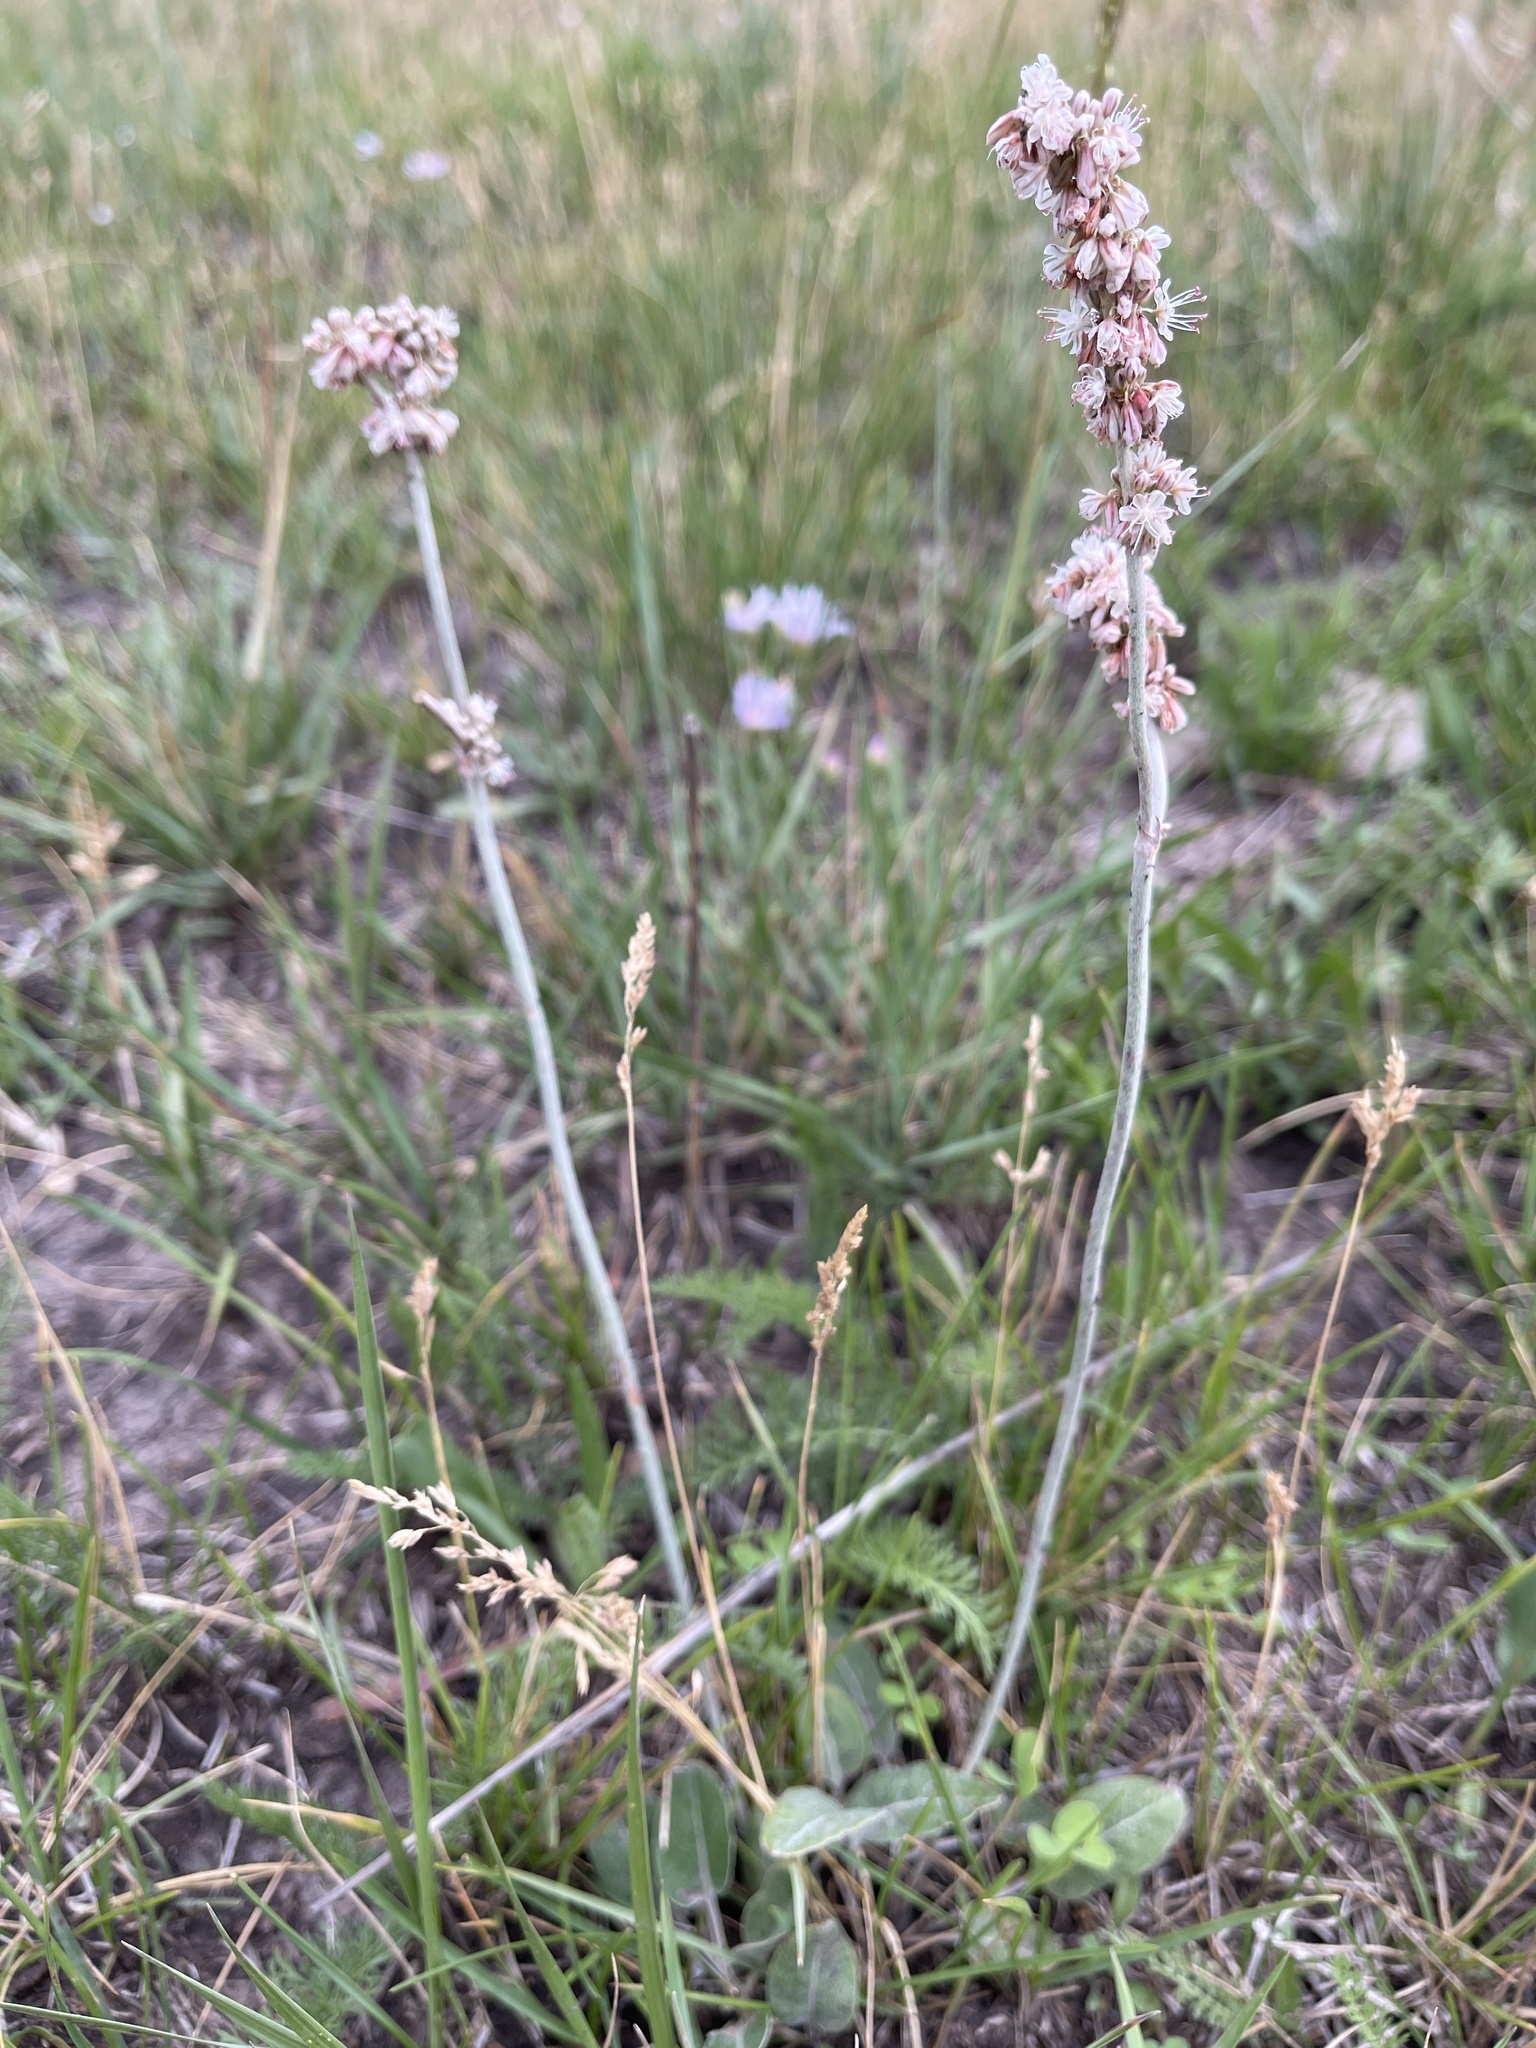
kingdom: Plantae
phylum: Tracheophyta
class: Magnoliopsida
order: Caryophyllales
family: Polygonaceae
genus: Eriogonum
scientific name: Eriogonum racemosum
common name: Redroot wild buckwheat
